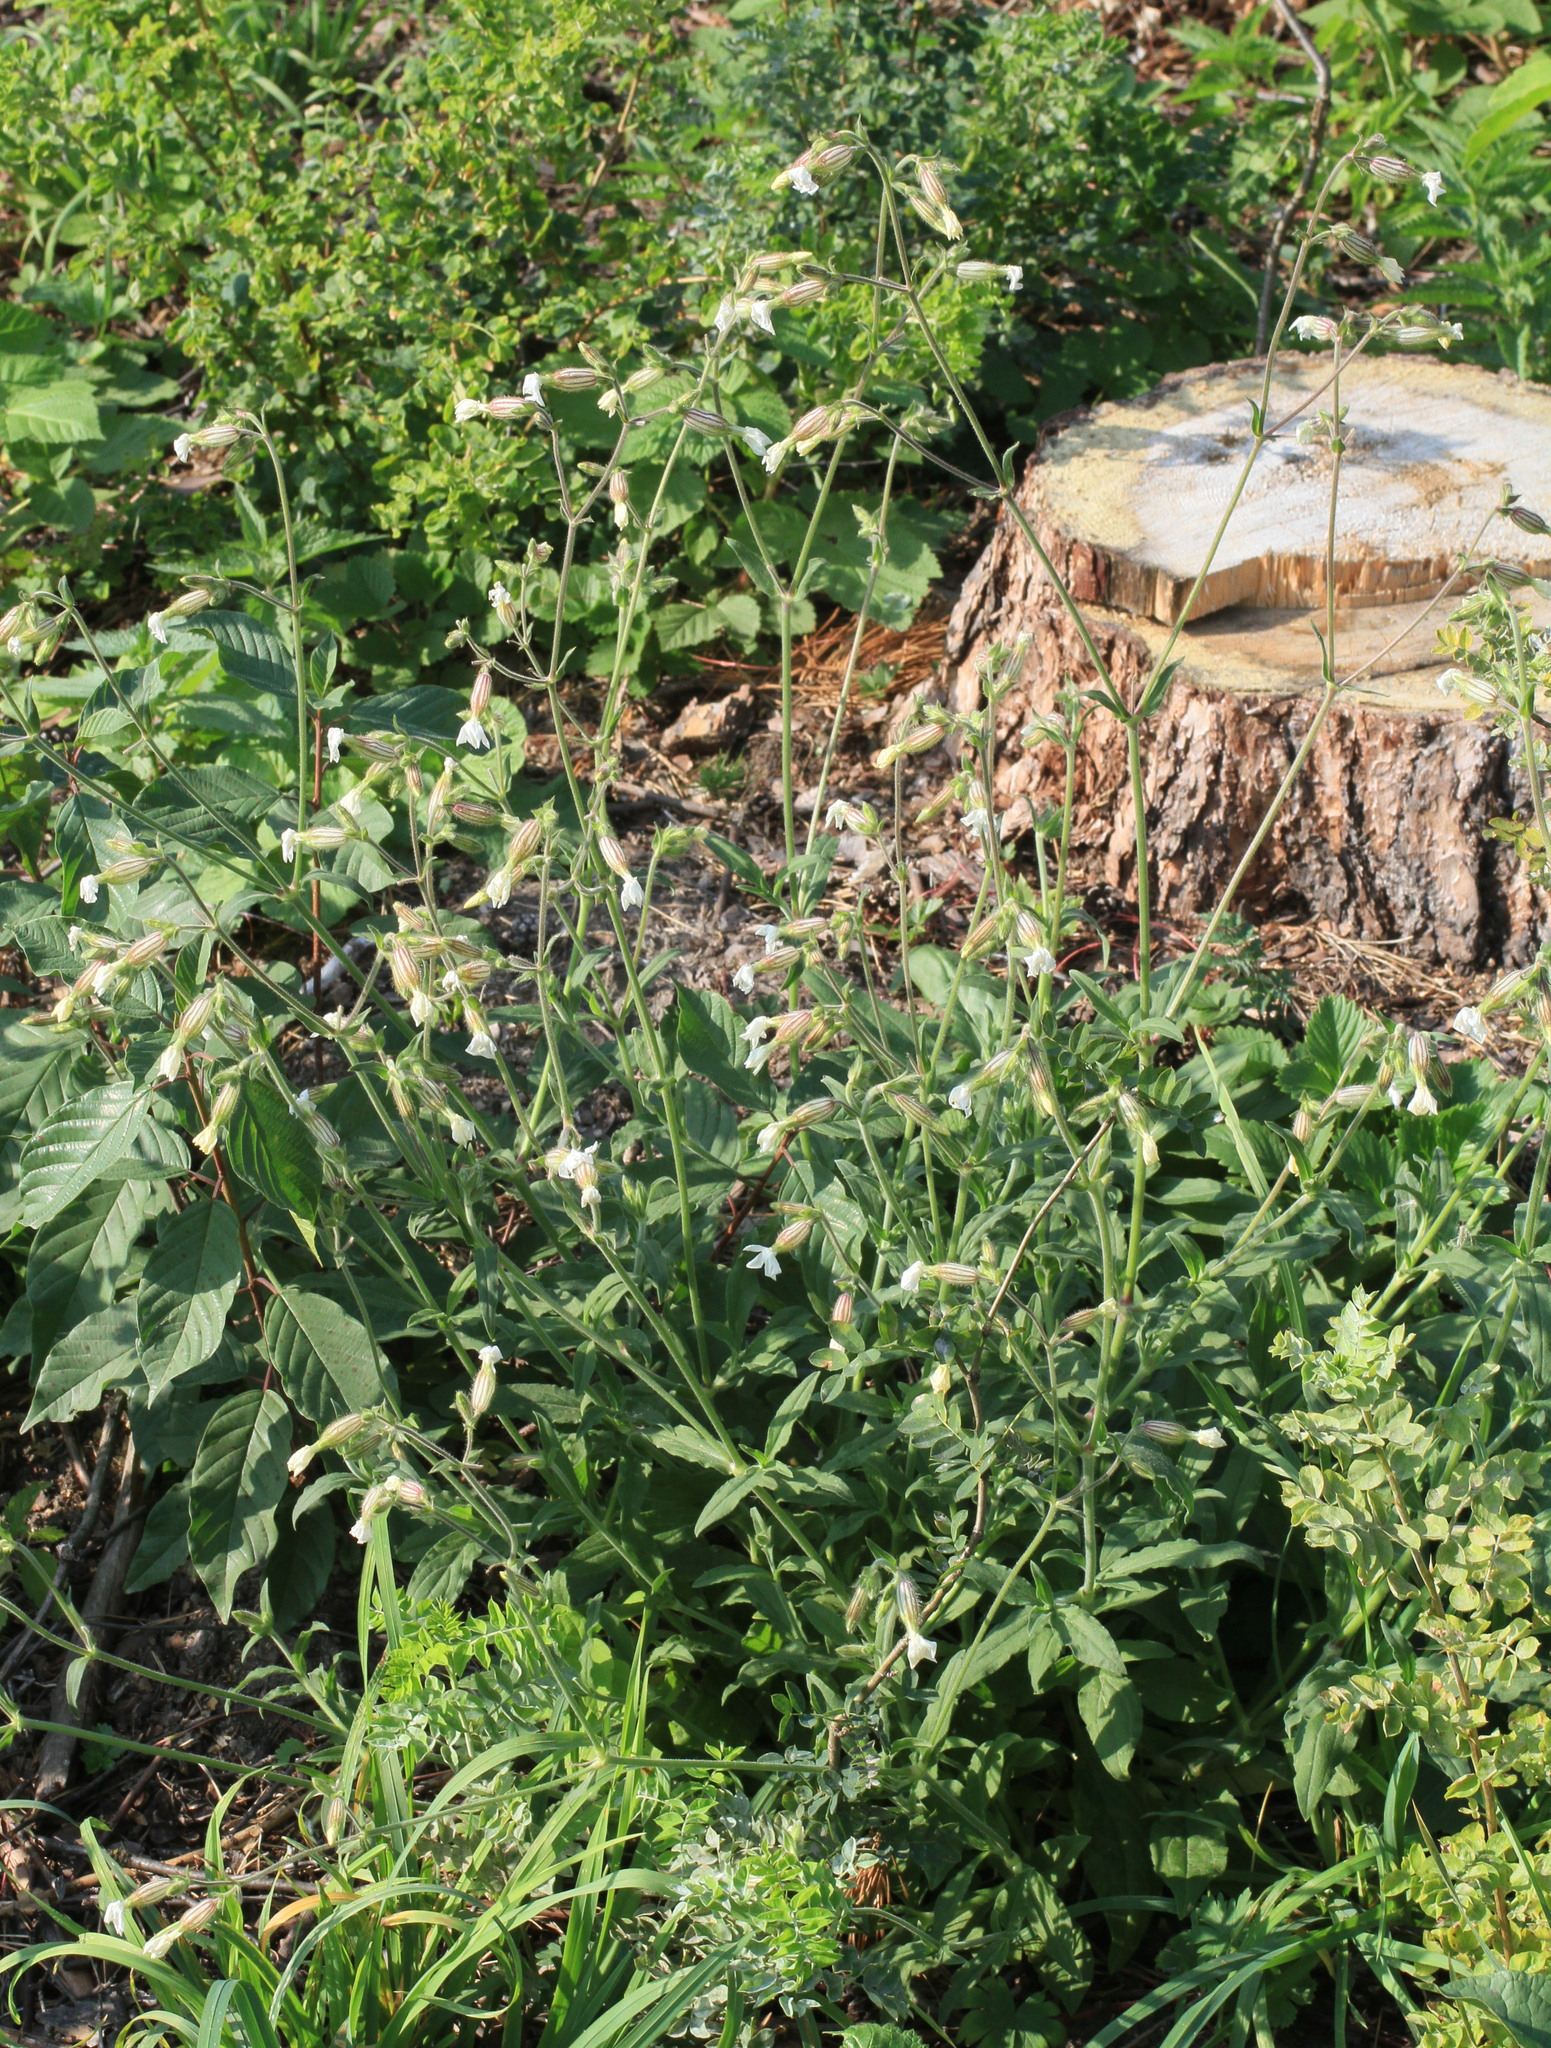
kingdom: Plantae
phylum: Tracheophyta
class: Magnoliopsida
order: Caryophyllales
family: Caryophyllaceae
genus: Silene
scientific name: Silene latifolia
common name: White campion
